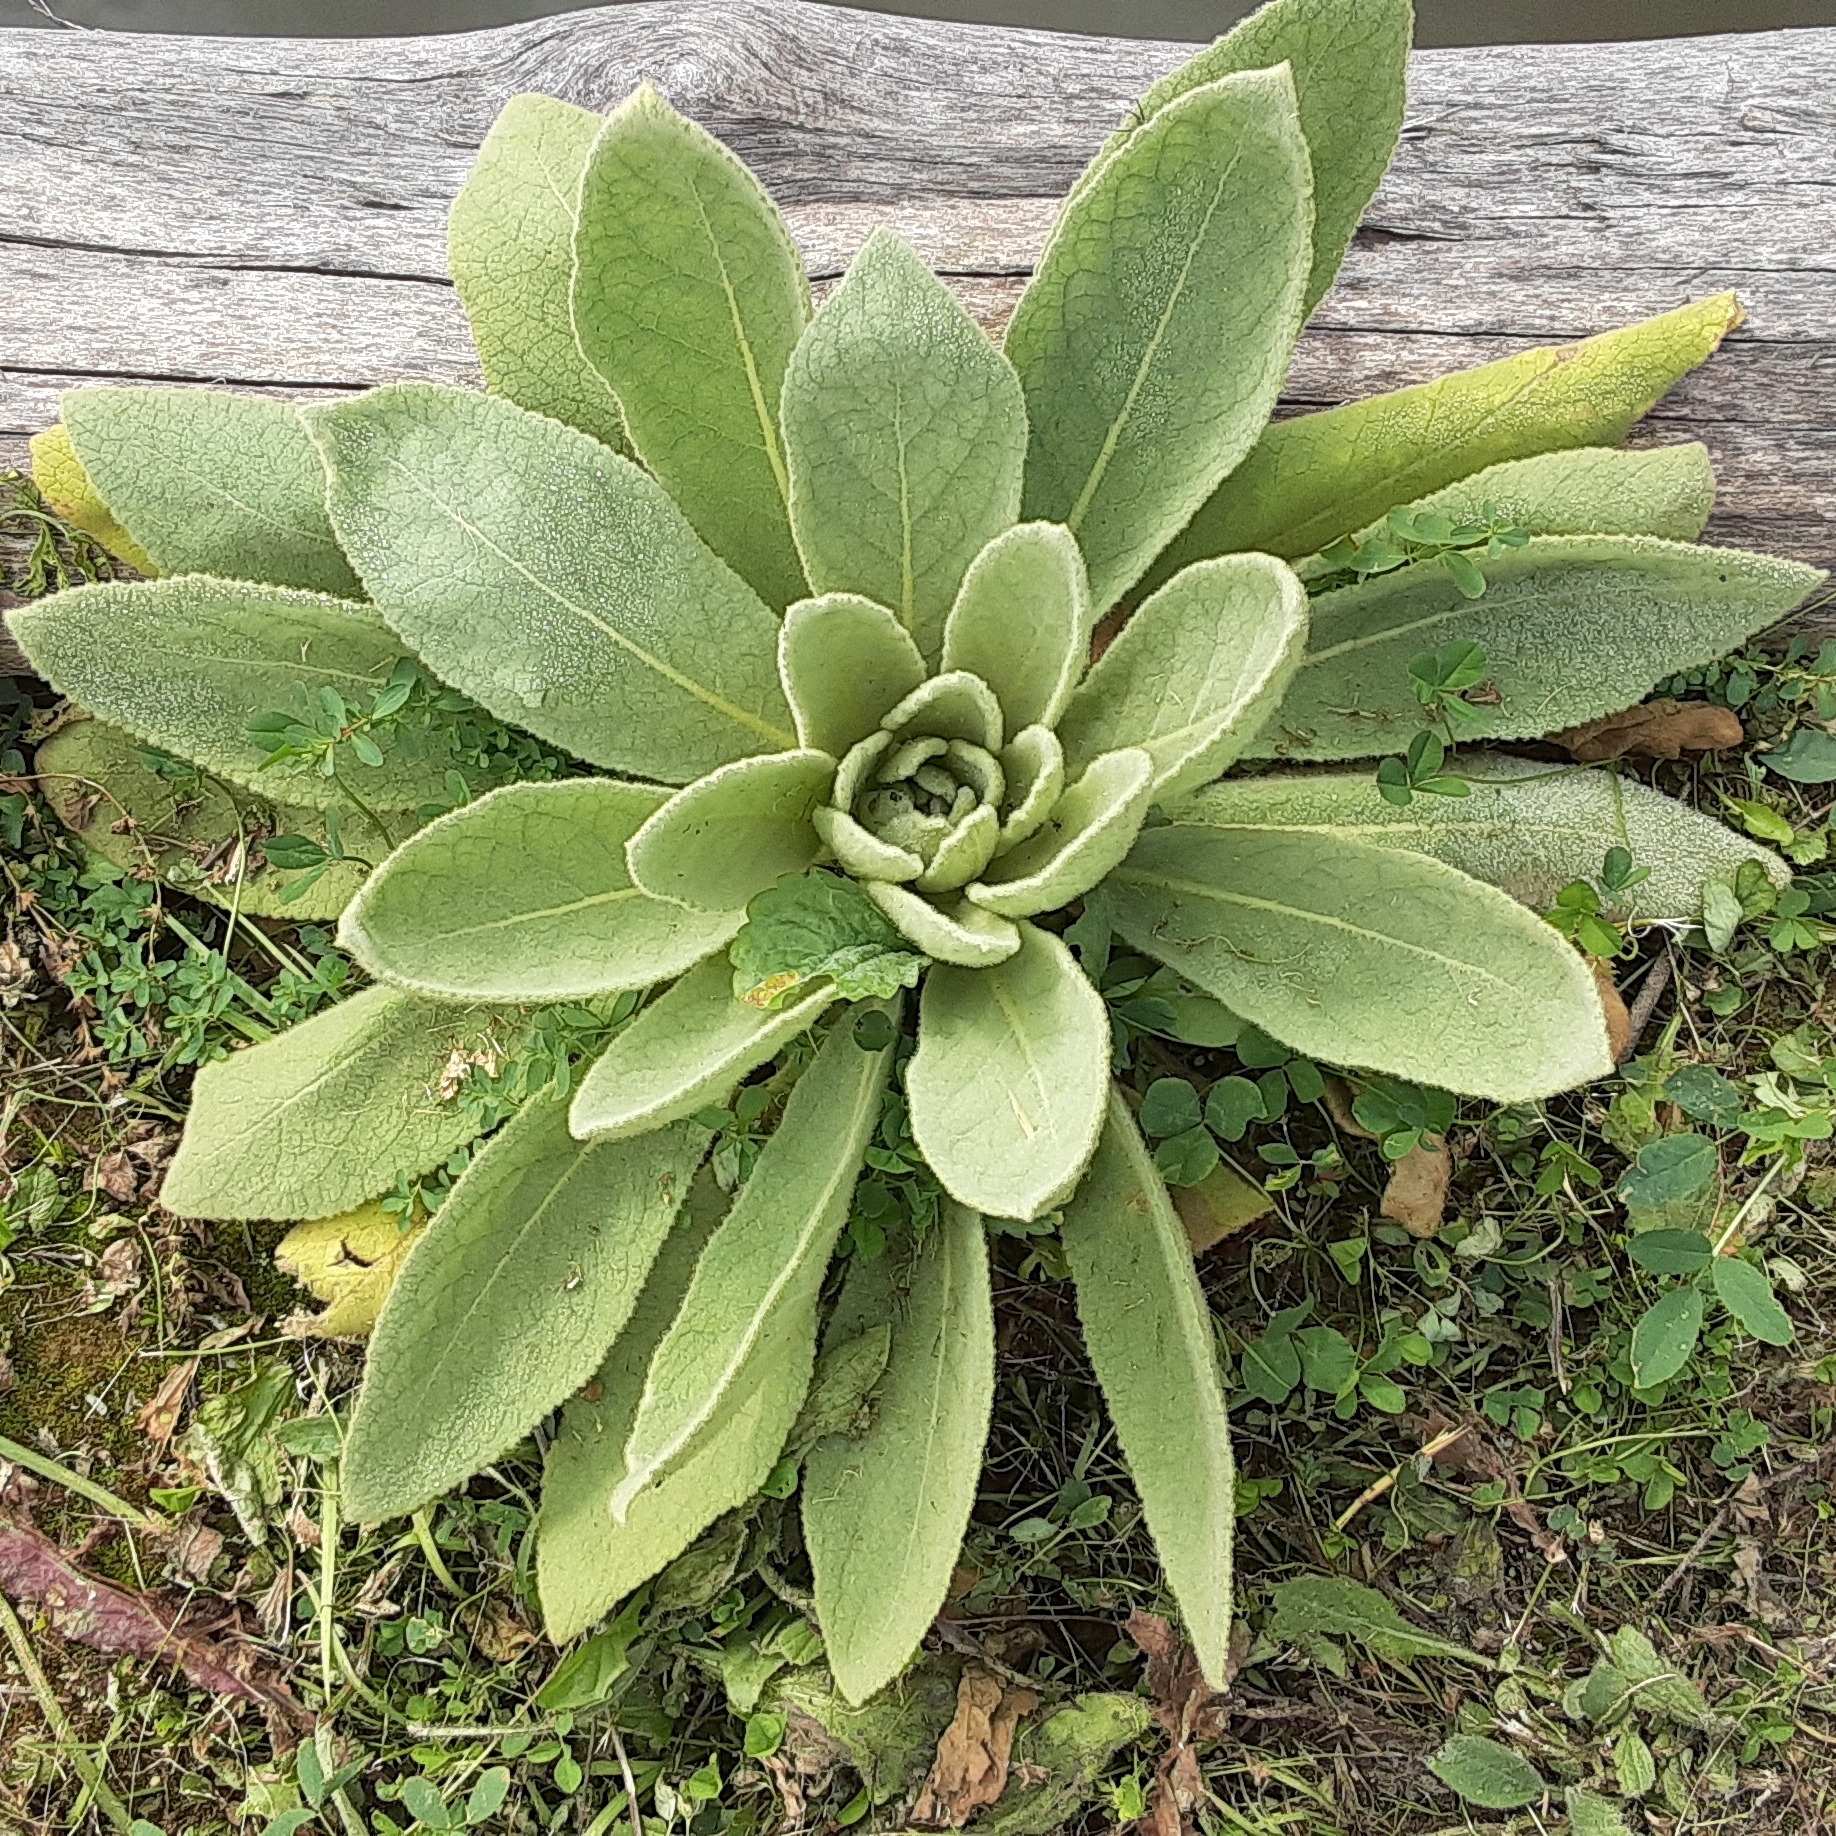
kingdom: Plantae
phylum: Tracheophyta
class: Magnoliopsida
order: Lamiales
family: Scrophulariaceae
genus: Verbascum
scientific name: Verbascum thapsus
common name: Common mullein
